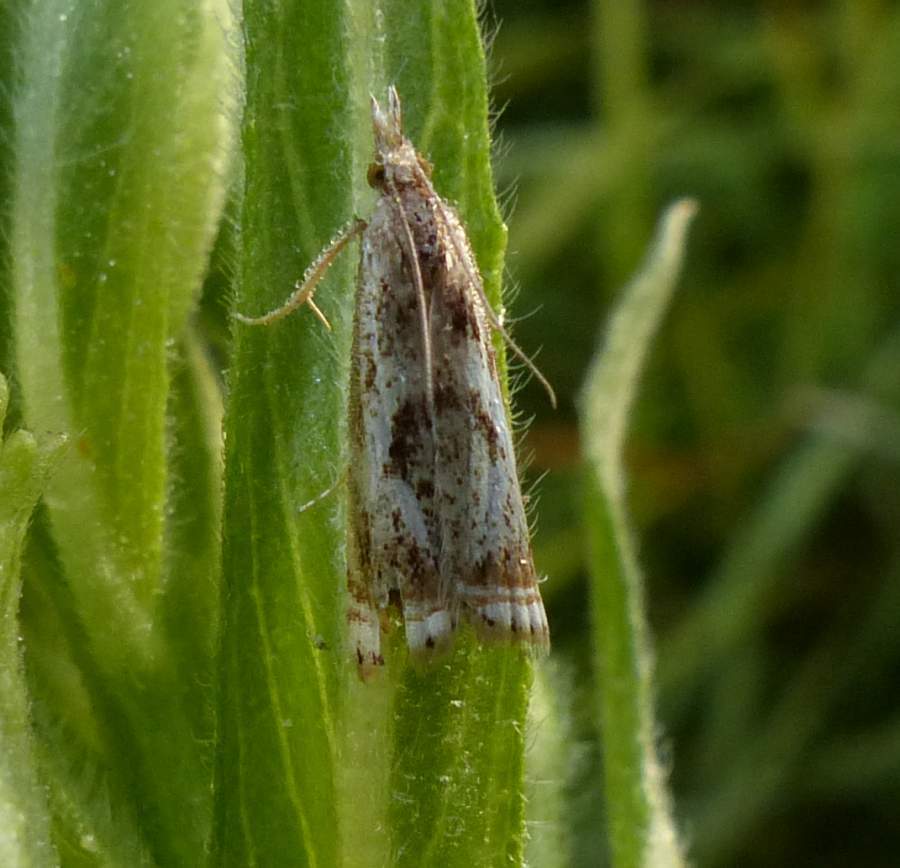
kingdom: Animalia
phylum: Arthropoda
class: Insecta
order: Lepidoptera
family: Crambidae
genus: Microcrambus
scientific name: Microcrambus elegans
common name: Elegant grass-veneer
